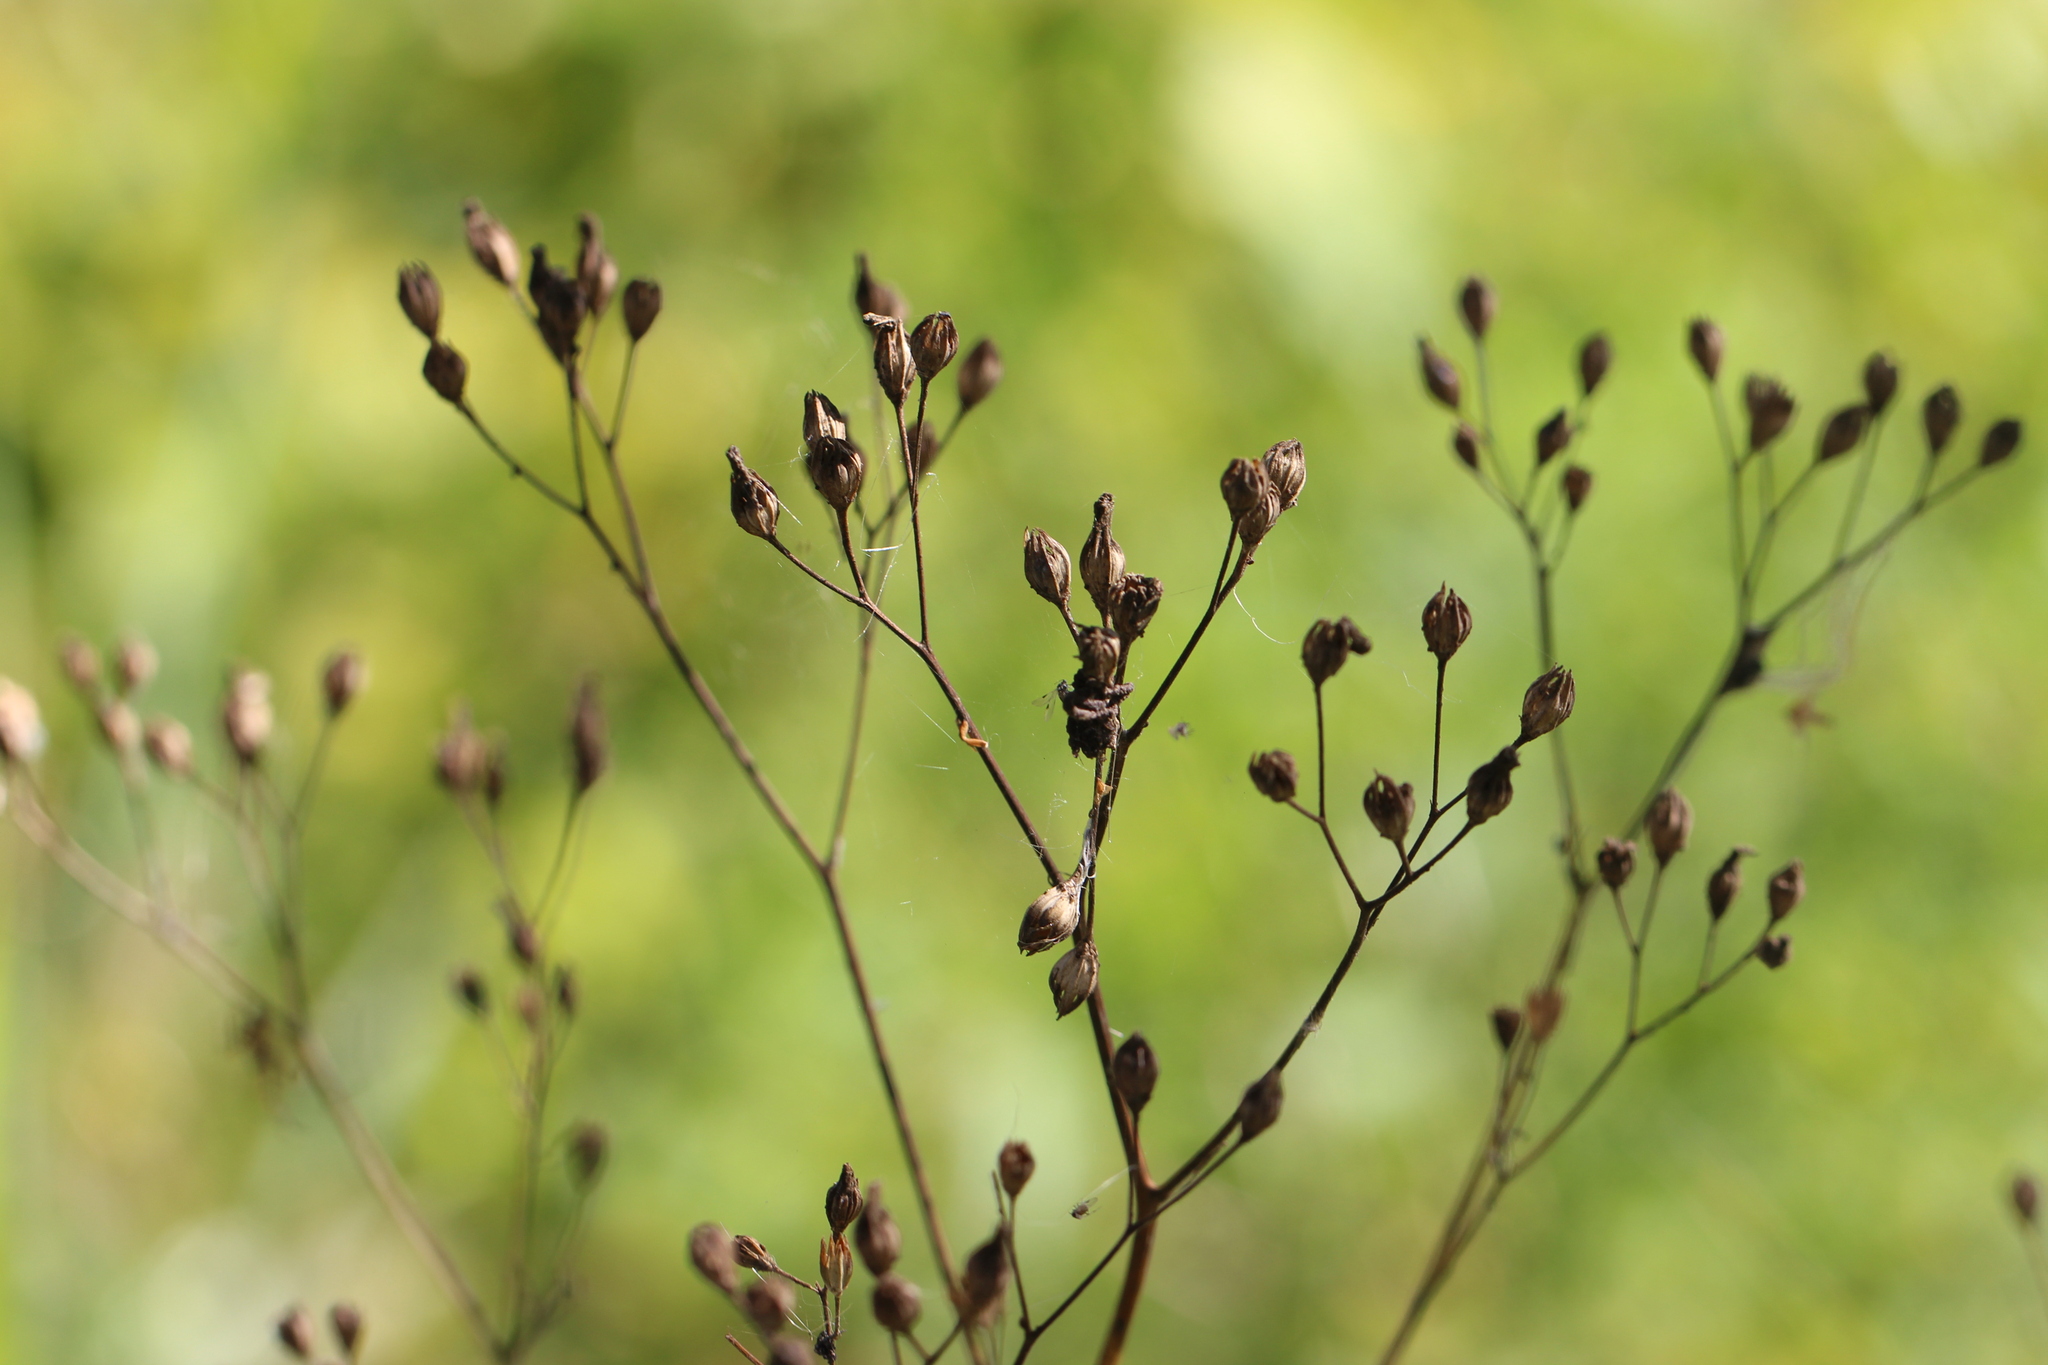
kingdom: Plantae
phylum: Tracheophyta
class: Magnoliopsida
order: Asterales
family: Asteraceae
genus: Lapsana
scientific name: Lapsana communis
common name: Nipplewort
